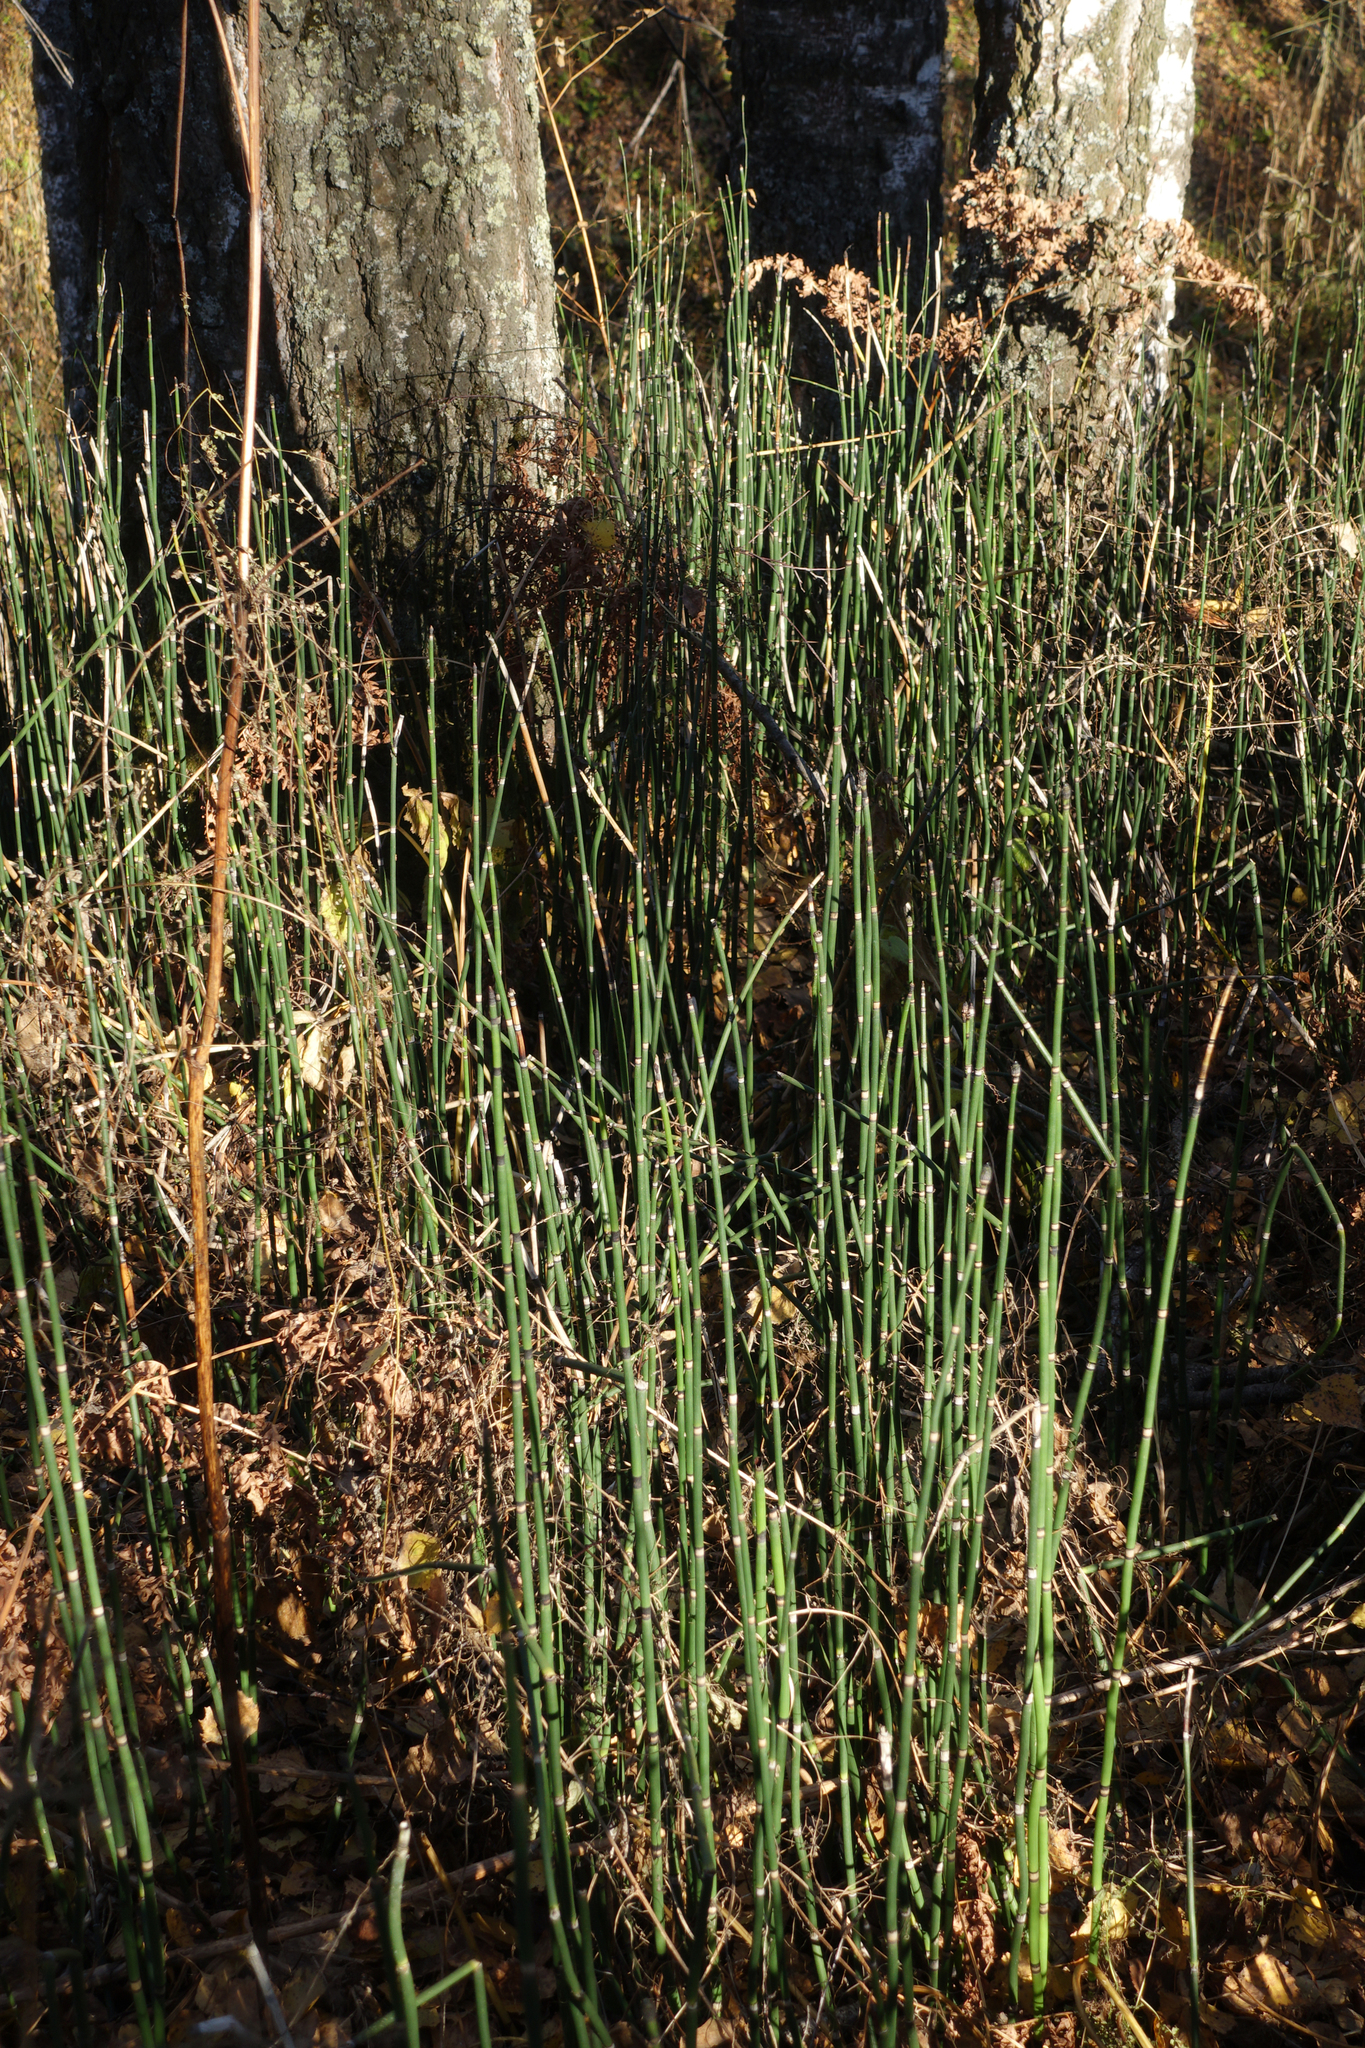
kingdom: Plantae
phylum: Tracheophyta
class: Polypodiopsida
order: Equisetales
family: Equisetaceae
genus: Equisetum
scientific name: Equisetum hyemale
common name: Rough horsetail
